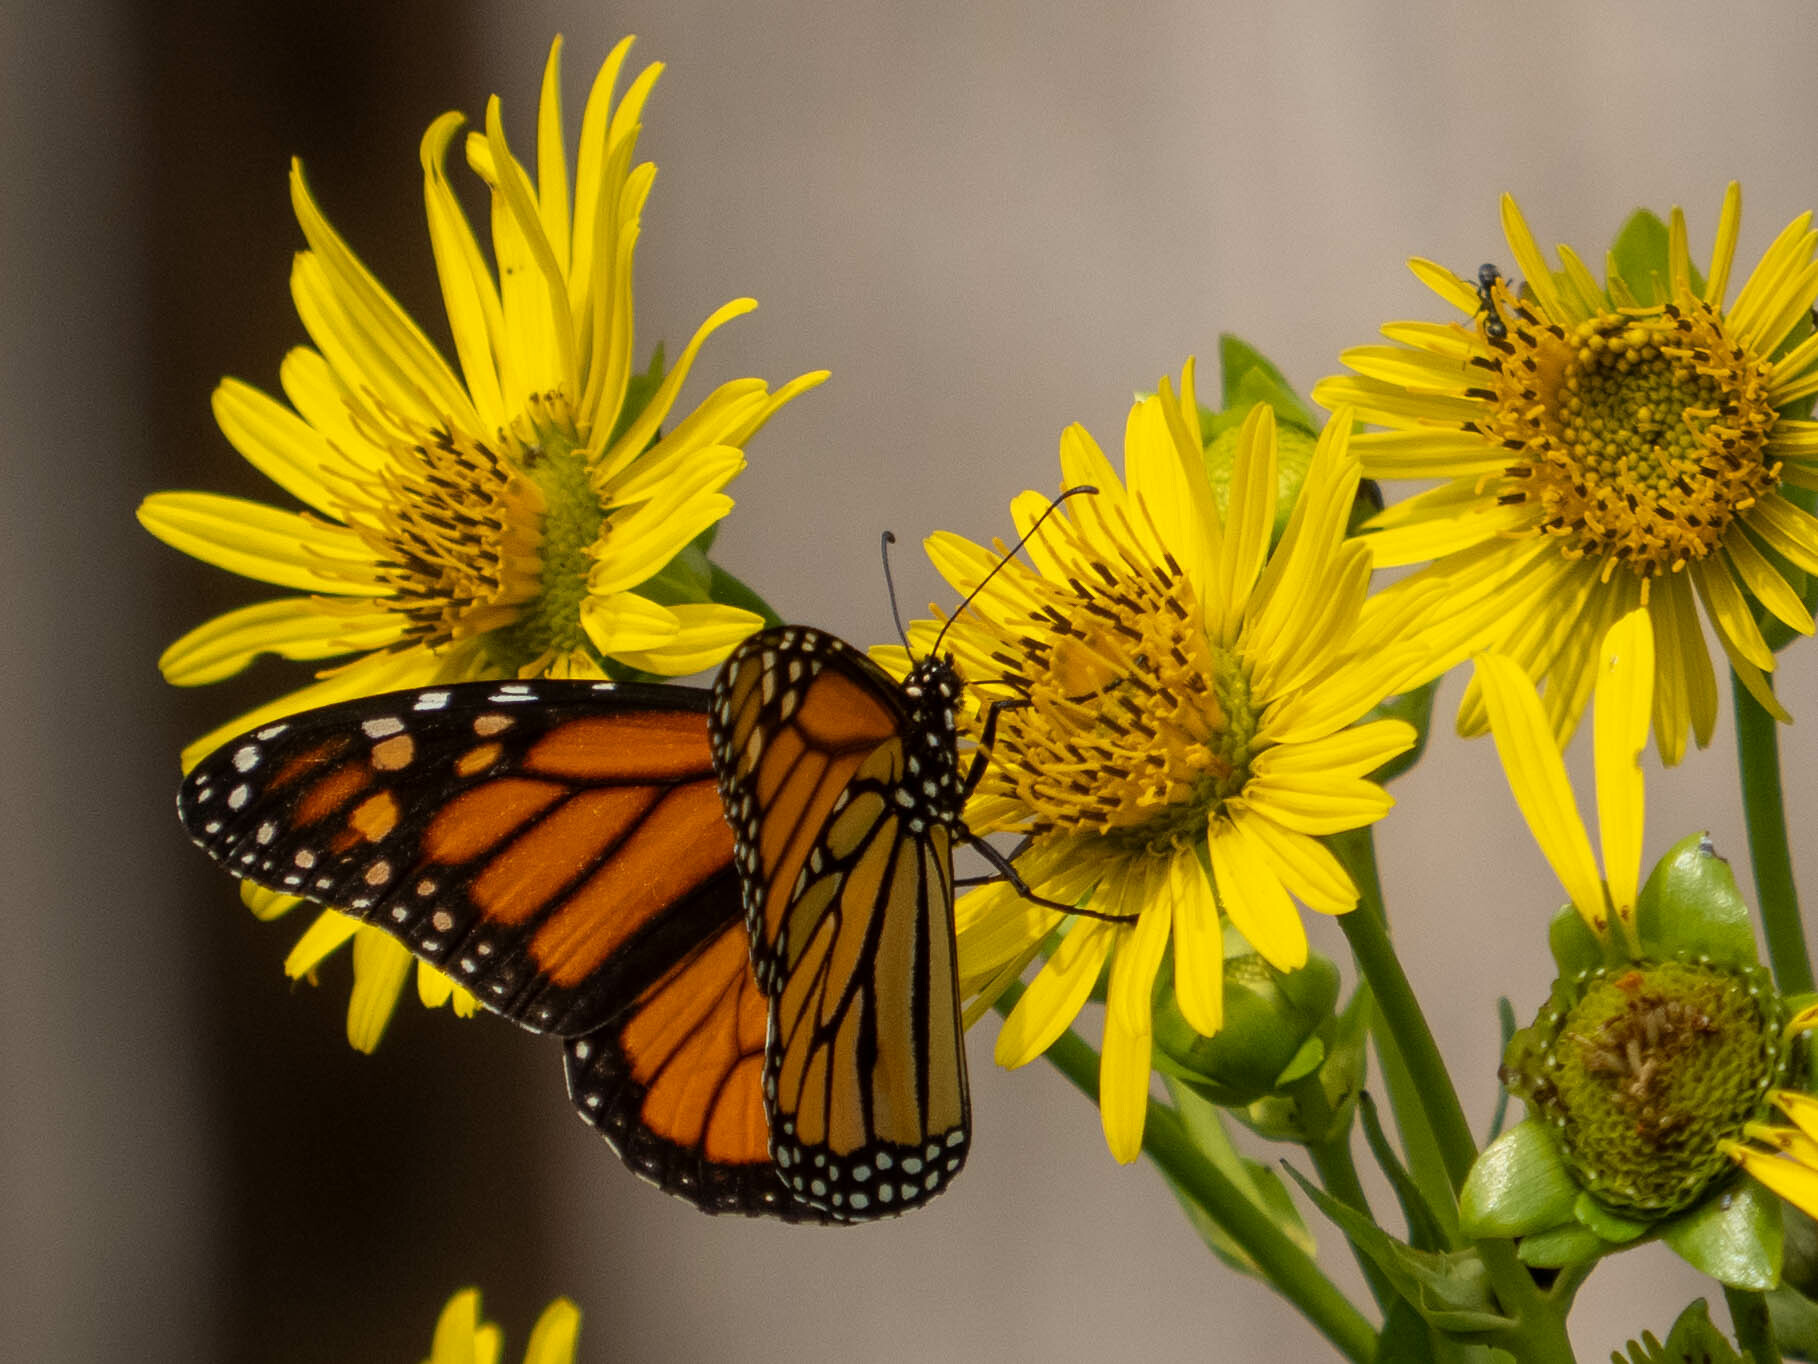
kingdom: Animalia
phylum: Arthropoda
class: Insecta
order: Lepidoptera
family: Nymphalidae
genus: Danaus
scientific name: Danaus plexippus
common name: Monarch
